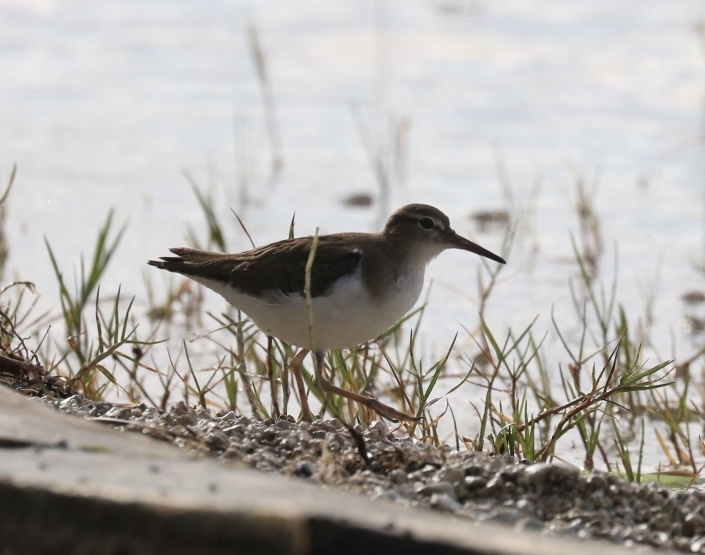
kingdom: Animalia
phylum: Chordata
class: Aves
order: Charadriiformes
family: Scolopacidae
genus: Actitis
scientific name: Actitis macularius
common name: Spotted sandpiper
